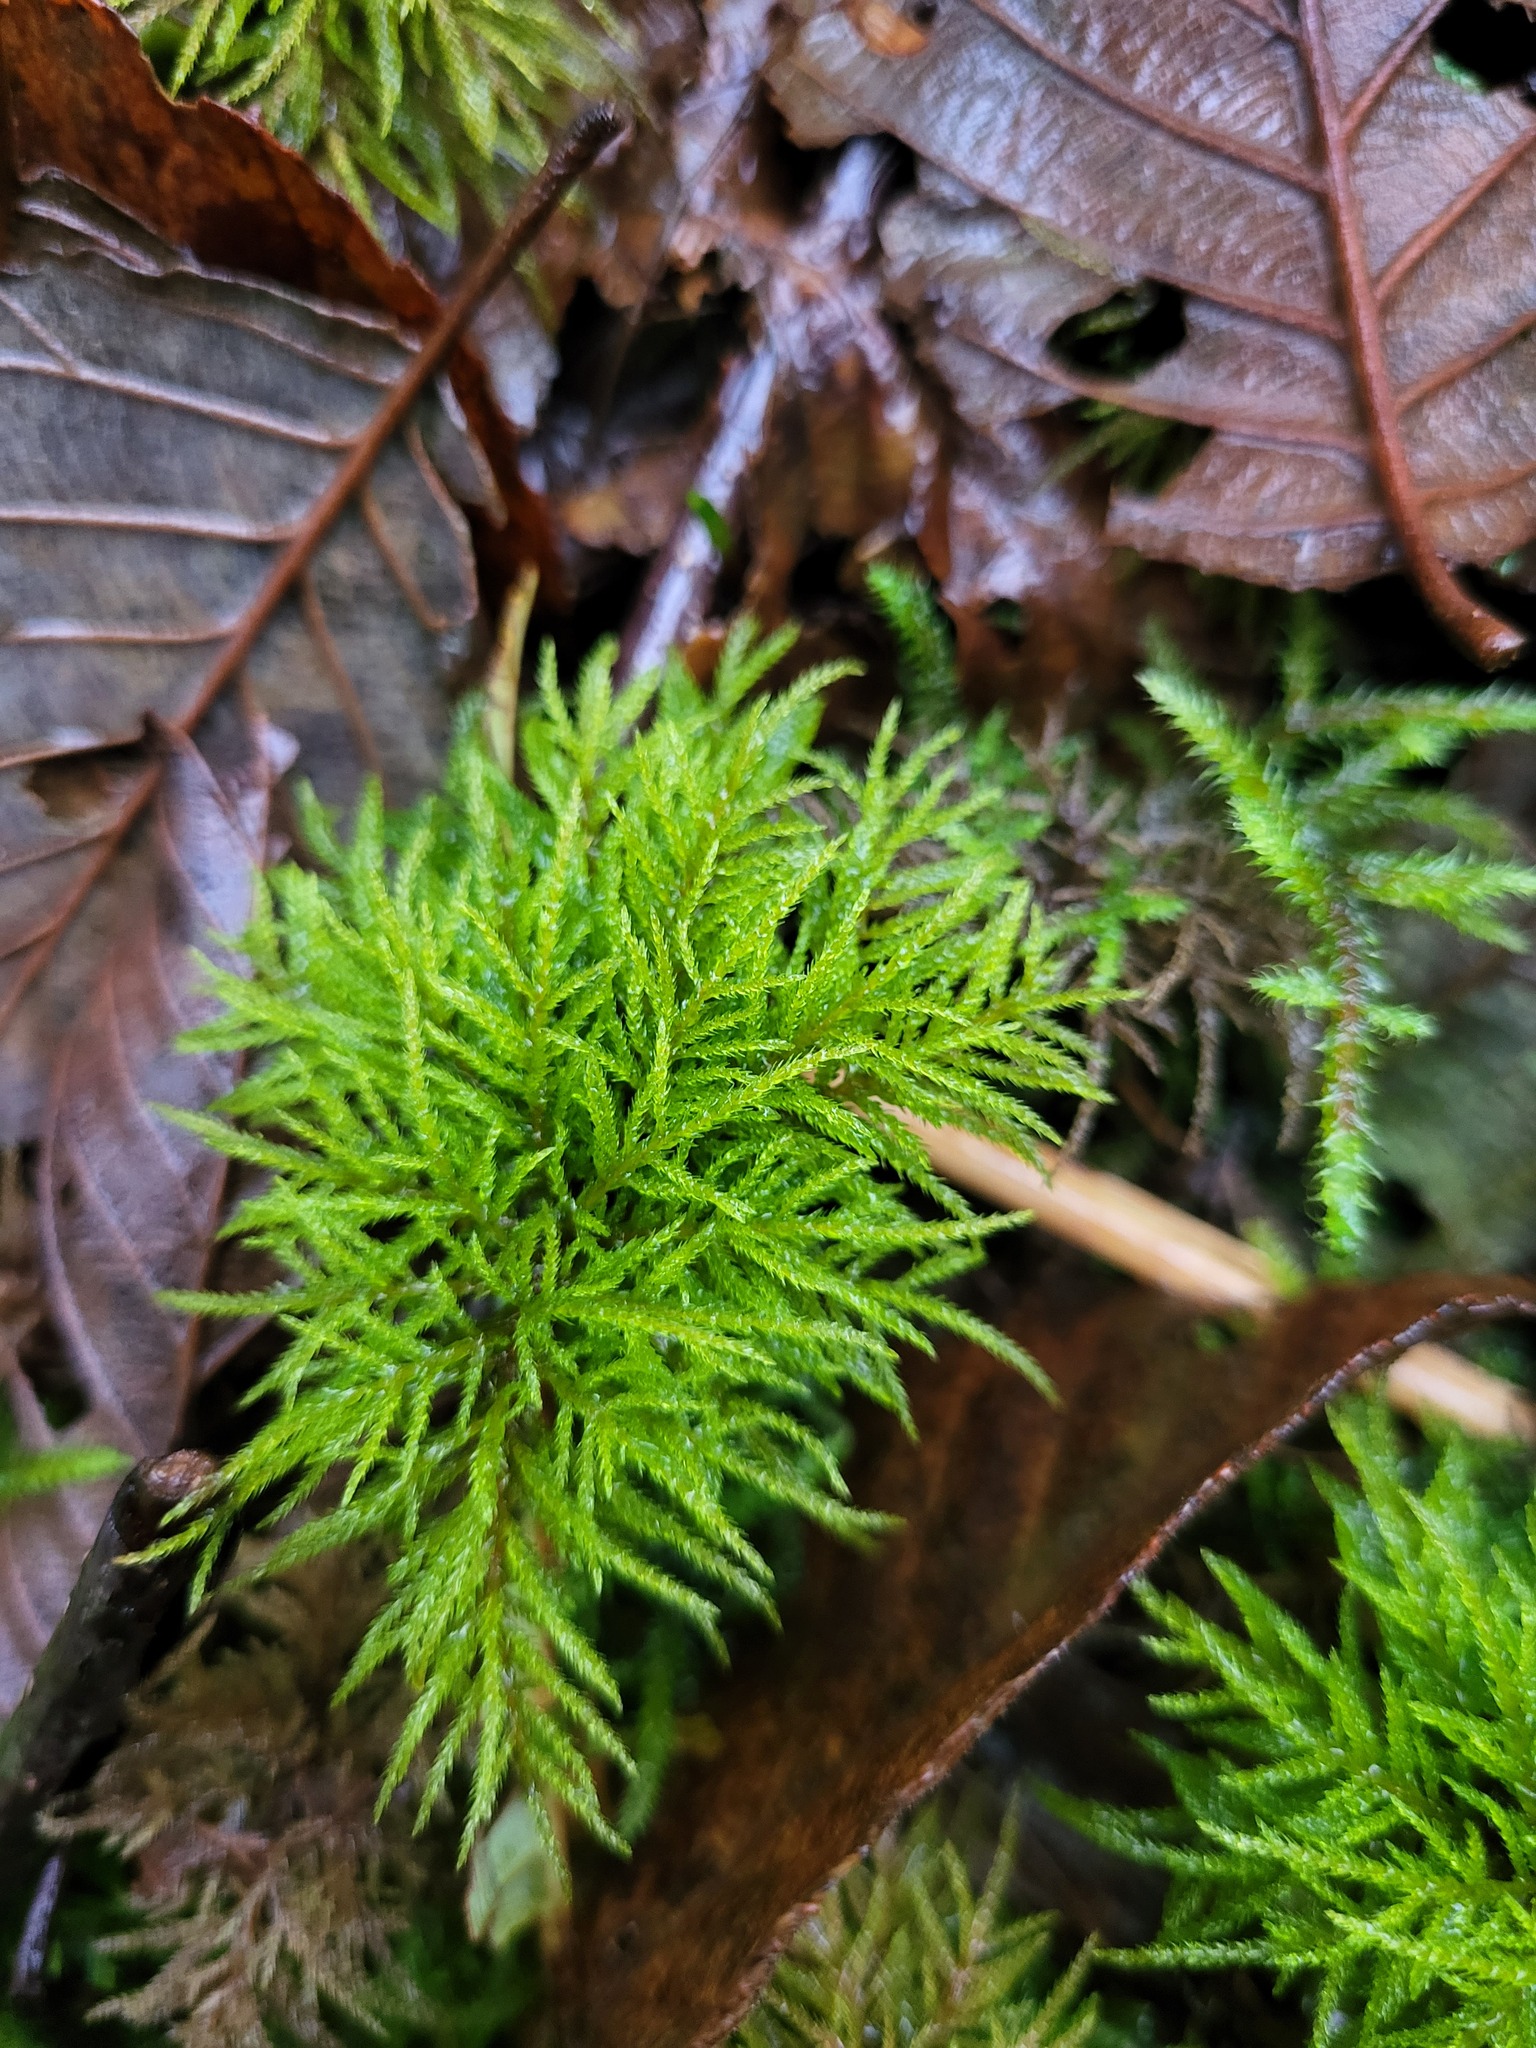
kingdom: Plantae
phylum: Bryophyta
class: Bryopsida
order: Hypnales
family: Climaciaceae
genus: Pleuroziopsis
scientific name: Pleuroziopsis ruthenica
